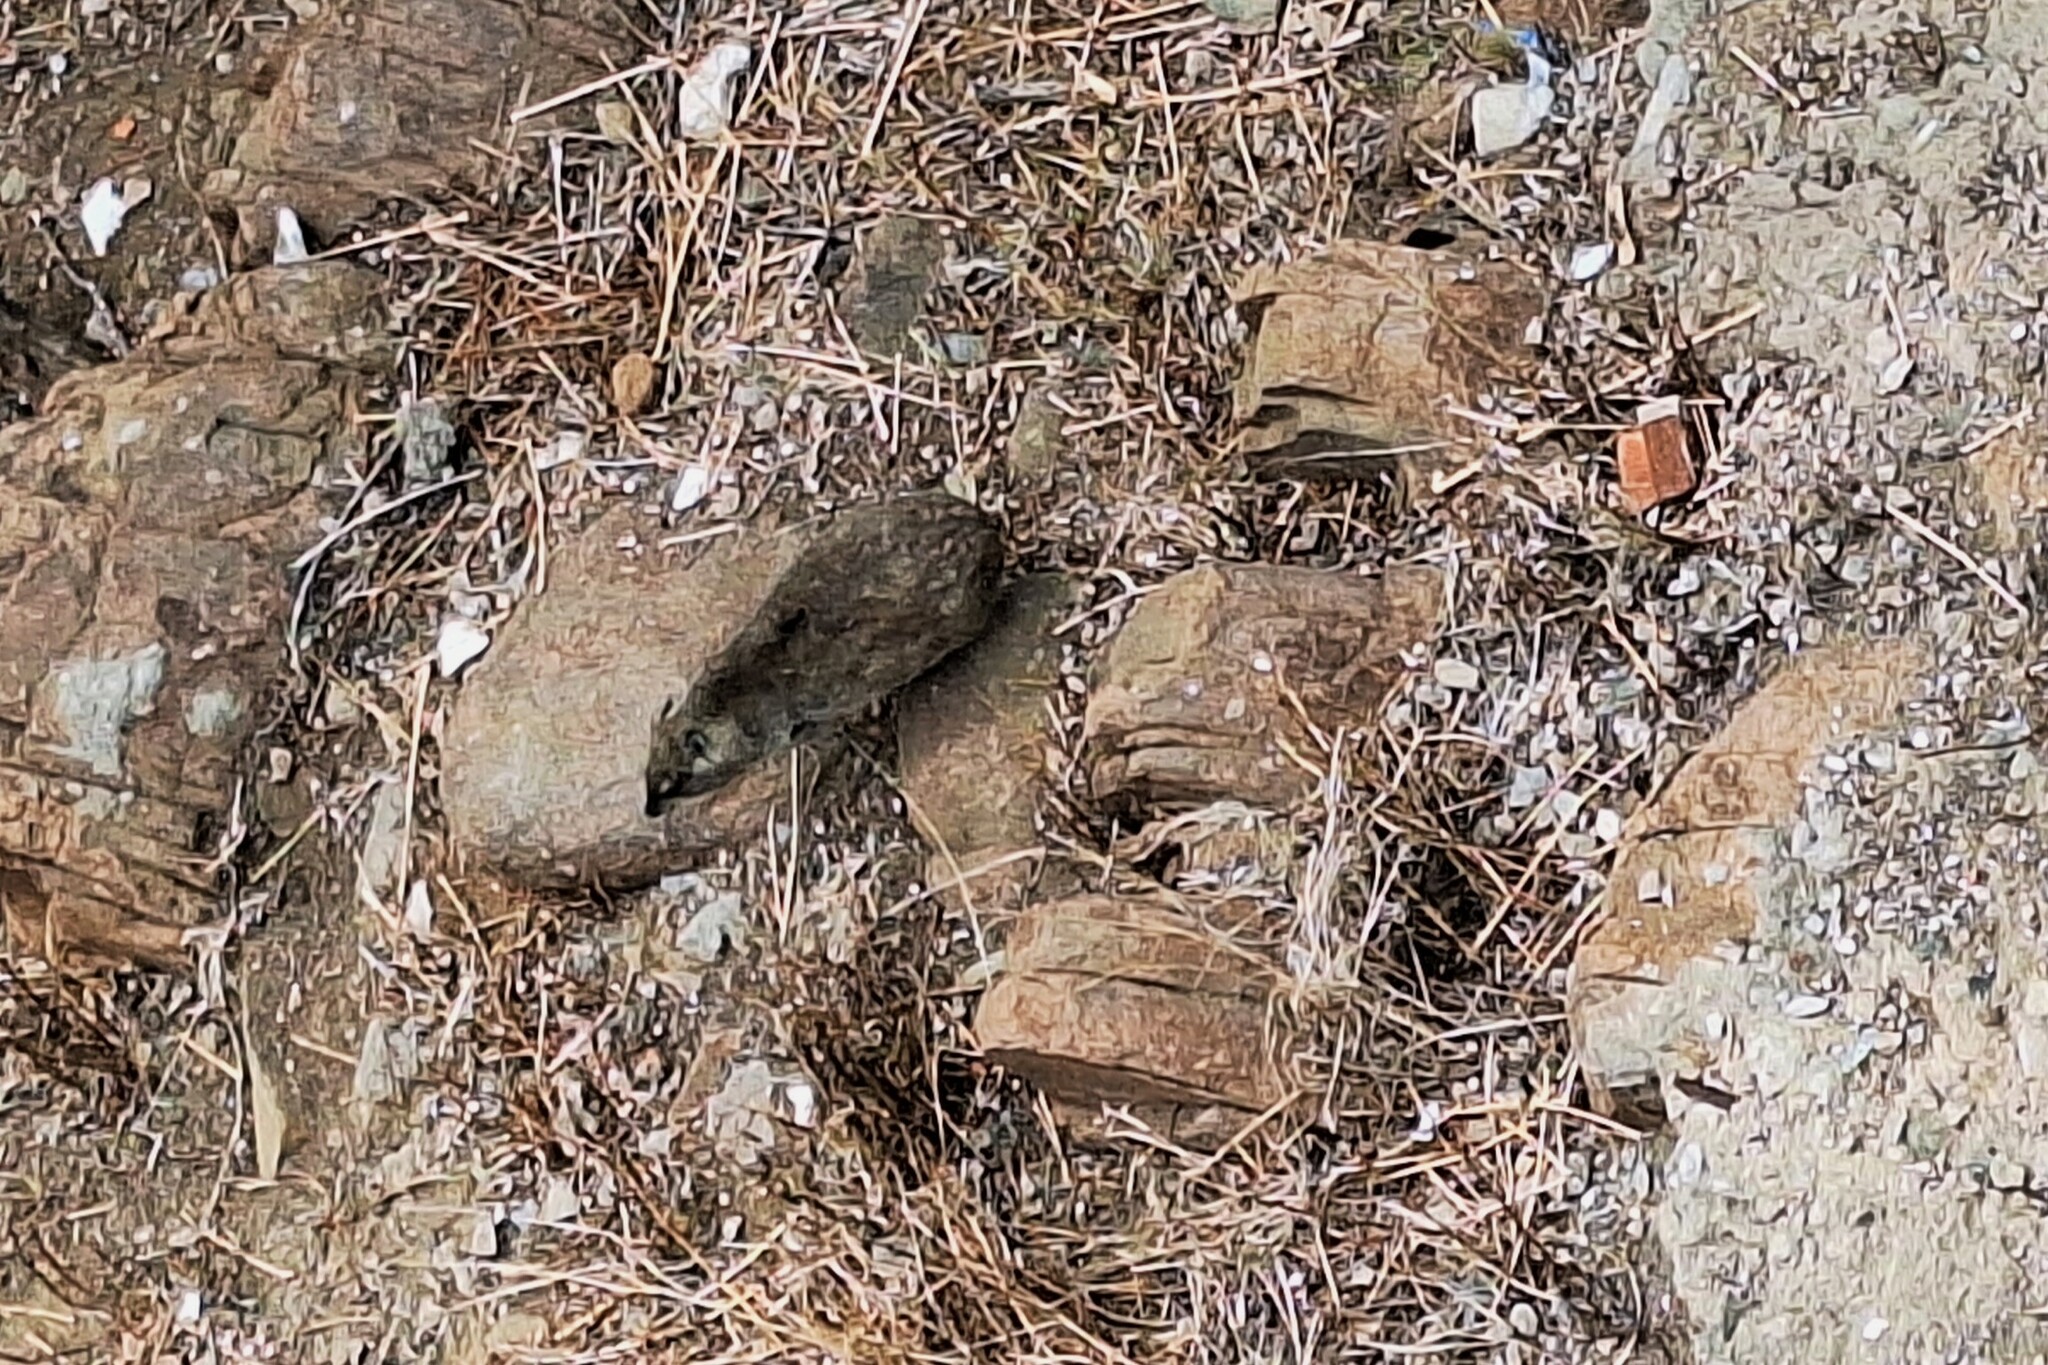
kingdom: Animalia
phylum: Chordata
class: Mammalia
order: Hyracoidea
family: Procaviidae
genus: Procavia
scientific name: Procavia capensis
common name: Rock hyrax
